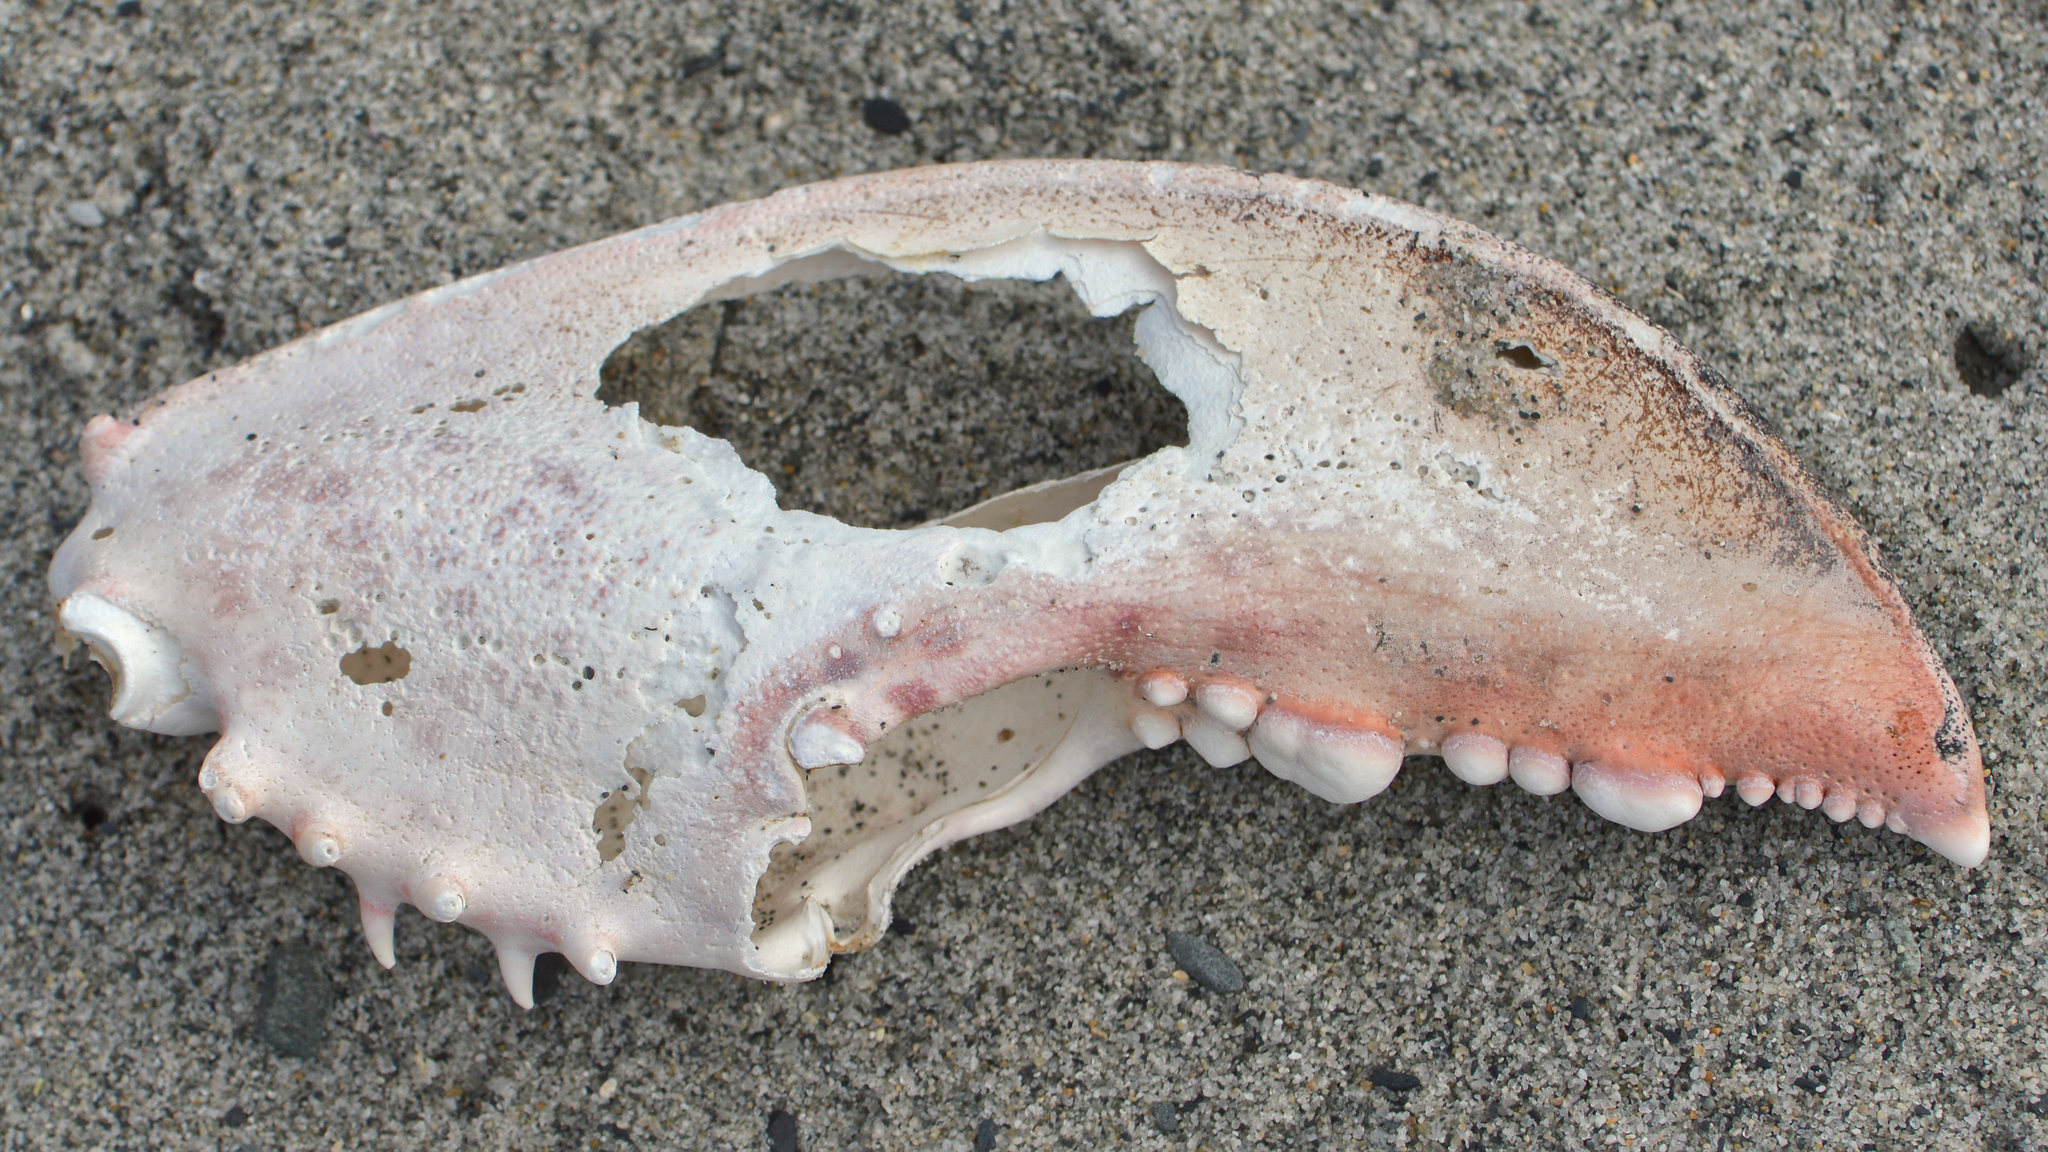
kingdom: Animalia
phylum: Arthropoda
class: Malacostraca
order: Decapoda
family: Nephropidae
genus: Homarus
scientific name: Homarus americanus
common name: American lobster
